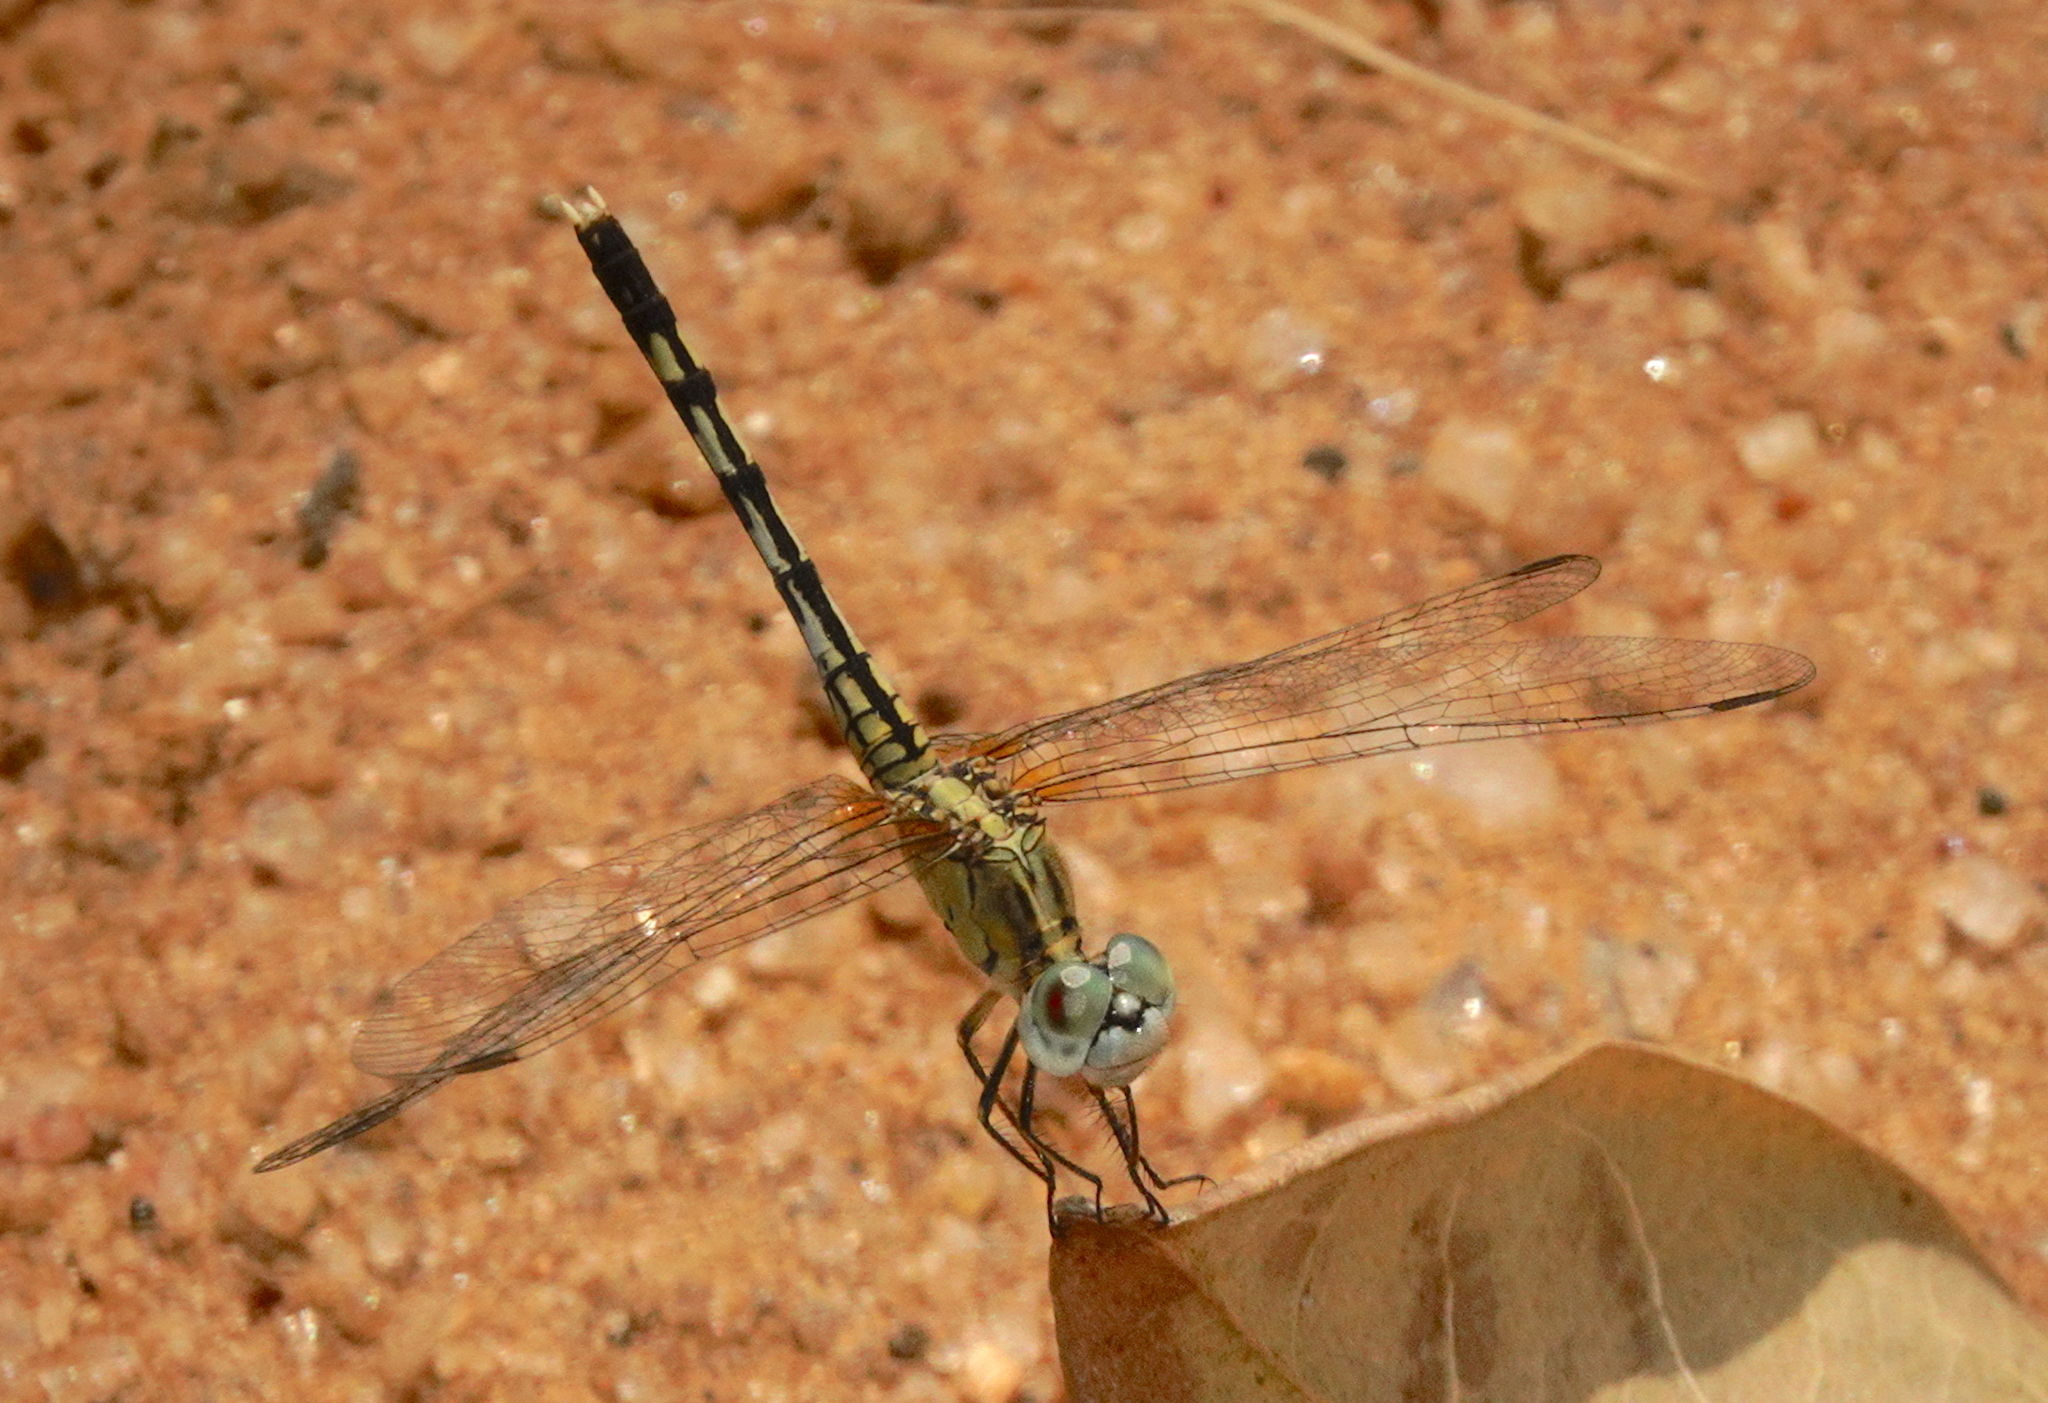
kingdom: Animalia
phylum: Arthropoda
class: Insecta
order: Odonata
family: Libellulidae
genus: Diplacodes
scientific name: Diplacodes trivialis
